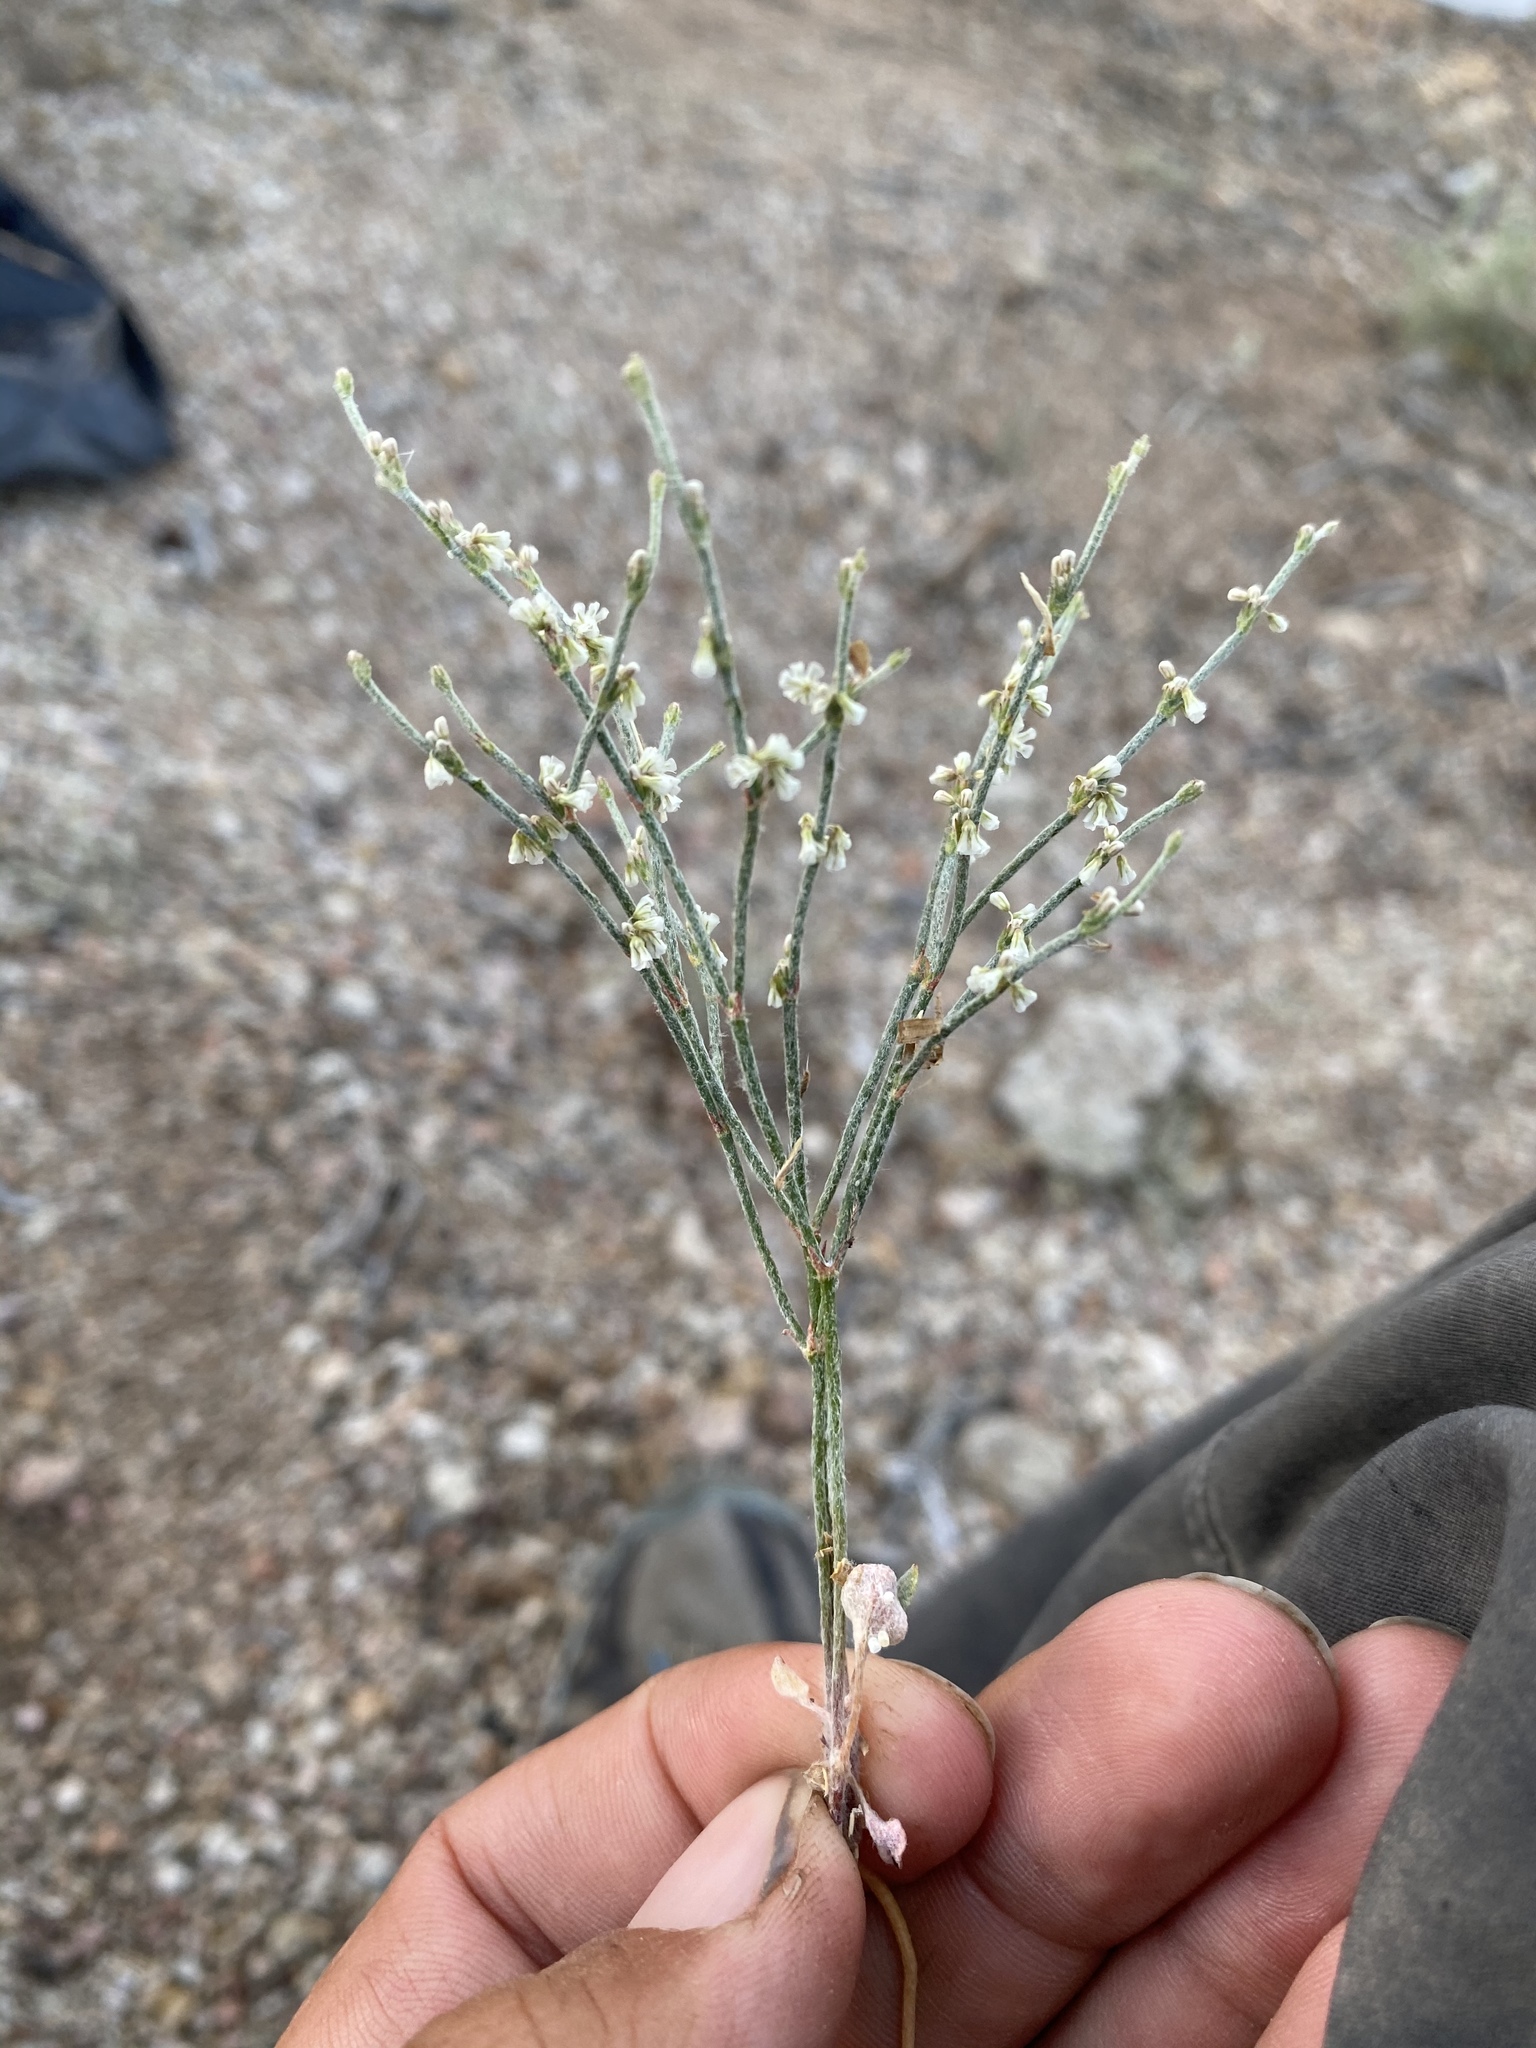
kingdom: Plantae
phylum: Tracheophyta
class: Magnoliopsida
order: Caryophyllales
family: Polygonaceae
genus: Eriogonum
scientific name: Eriogonum palmerianum
